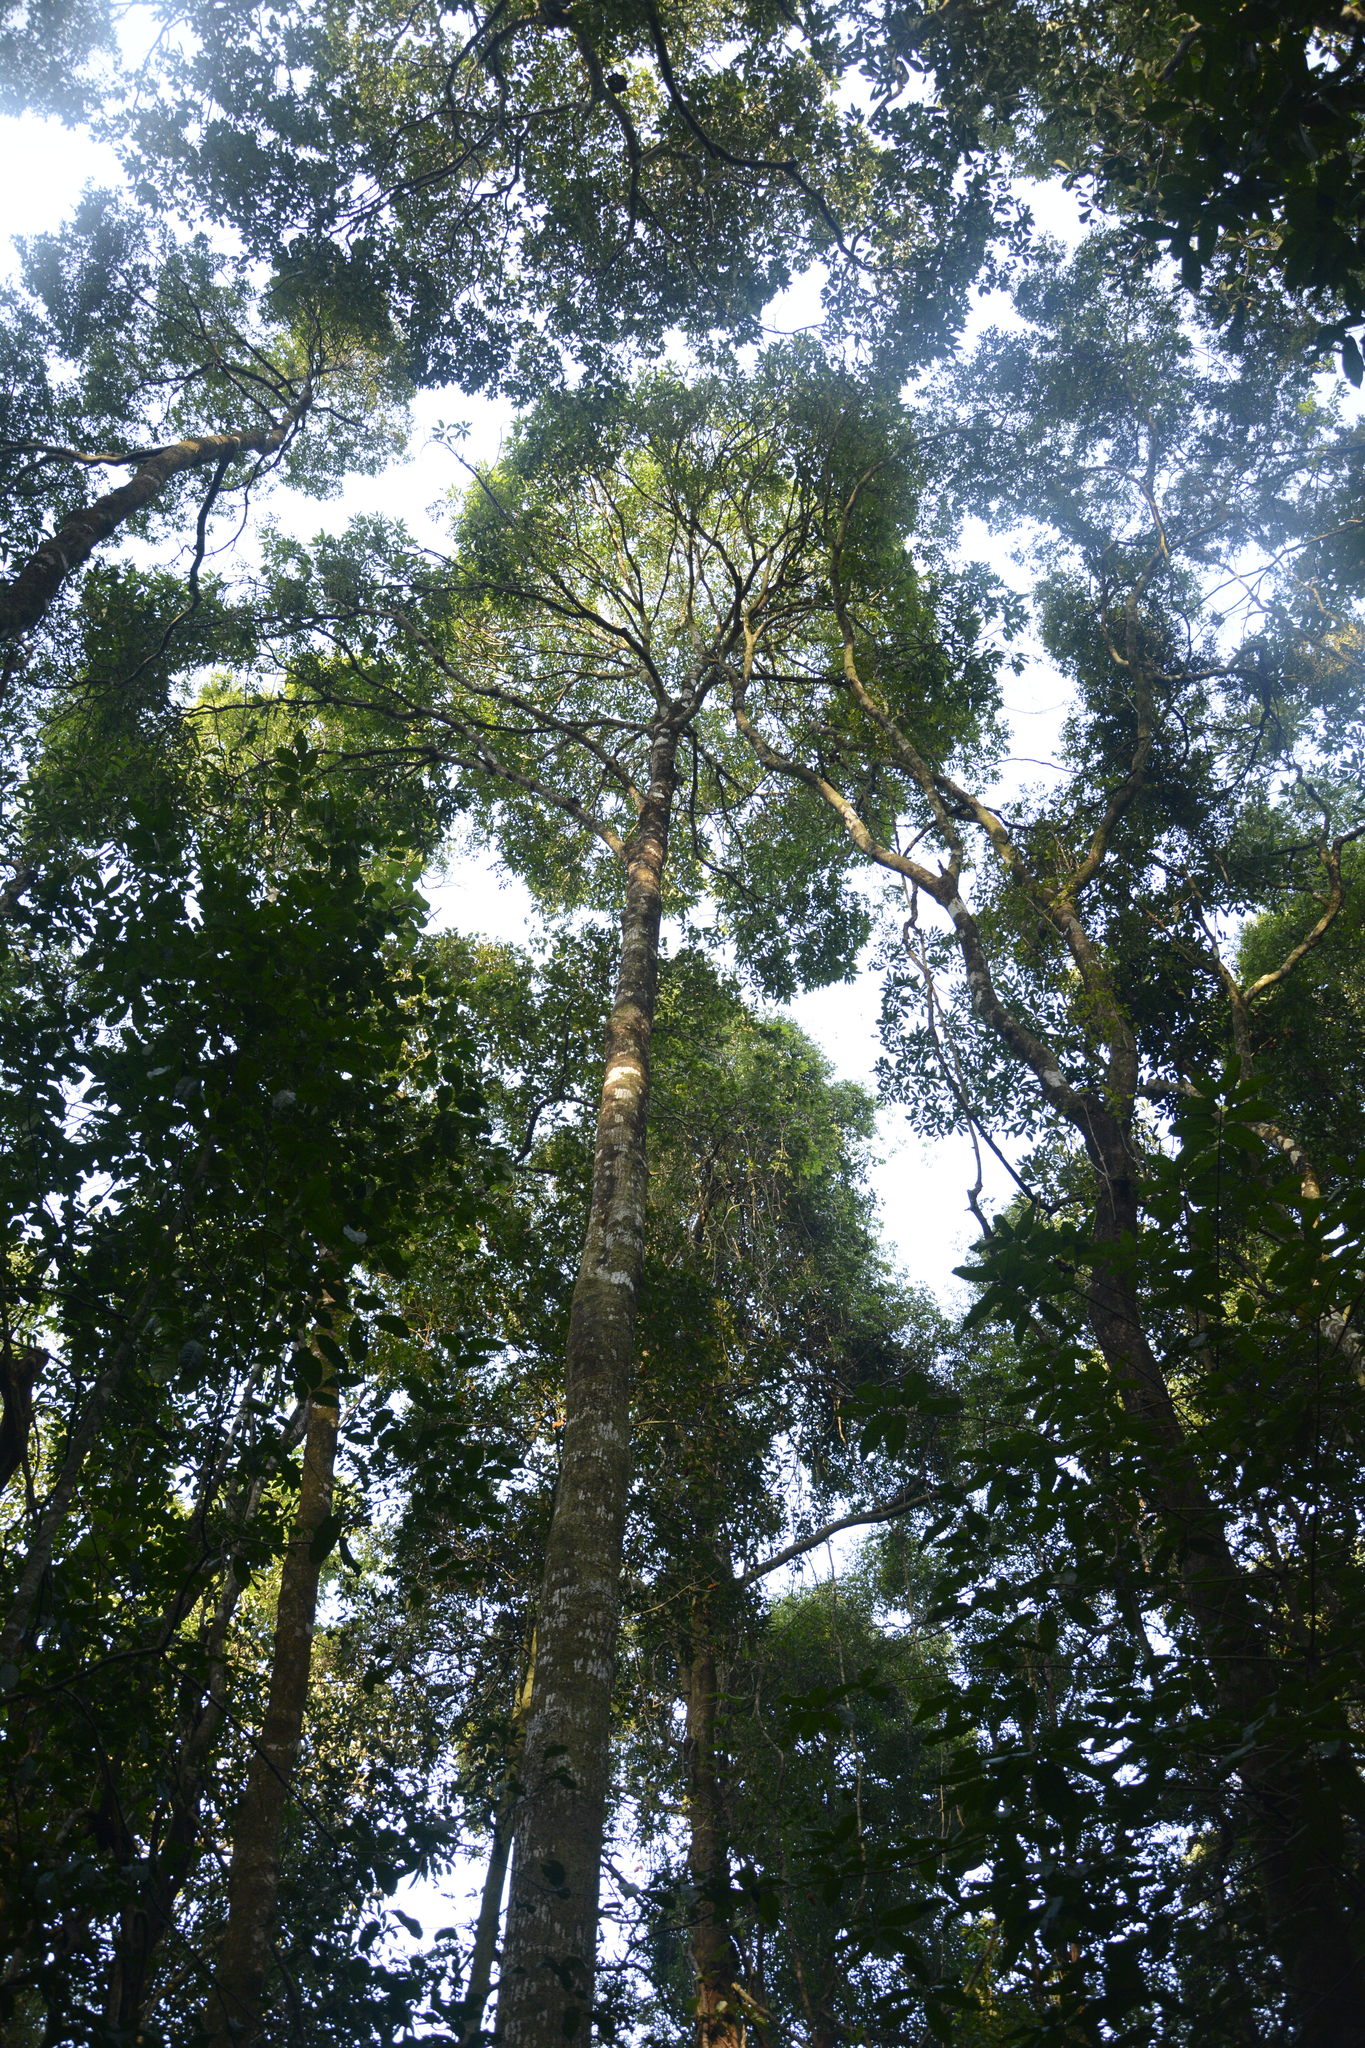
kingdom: Plantae
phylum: Tracheophyta
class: Magnoliopsida
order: Sapindales
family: Anacardiaceae
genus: Mangifera
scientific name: Mangifera indica
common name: Mango
